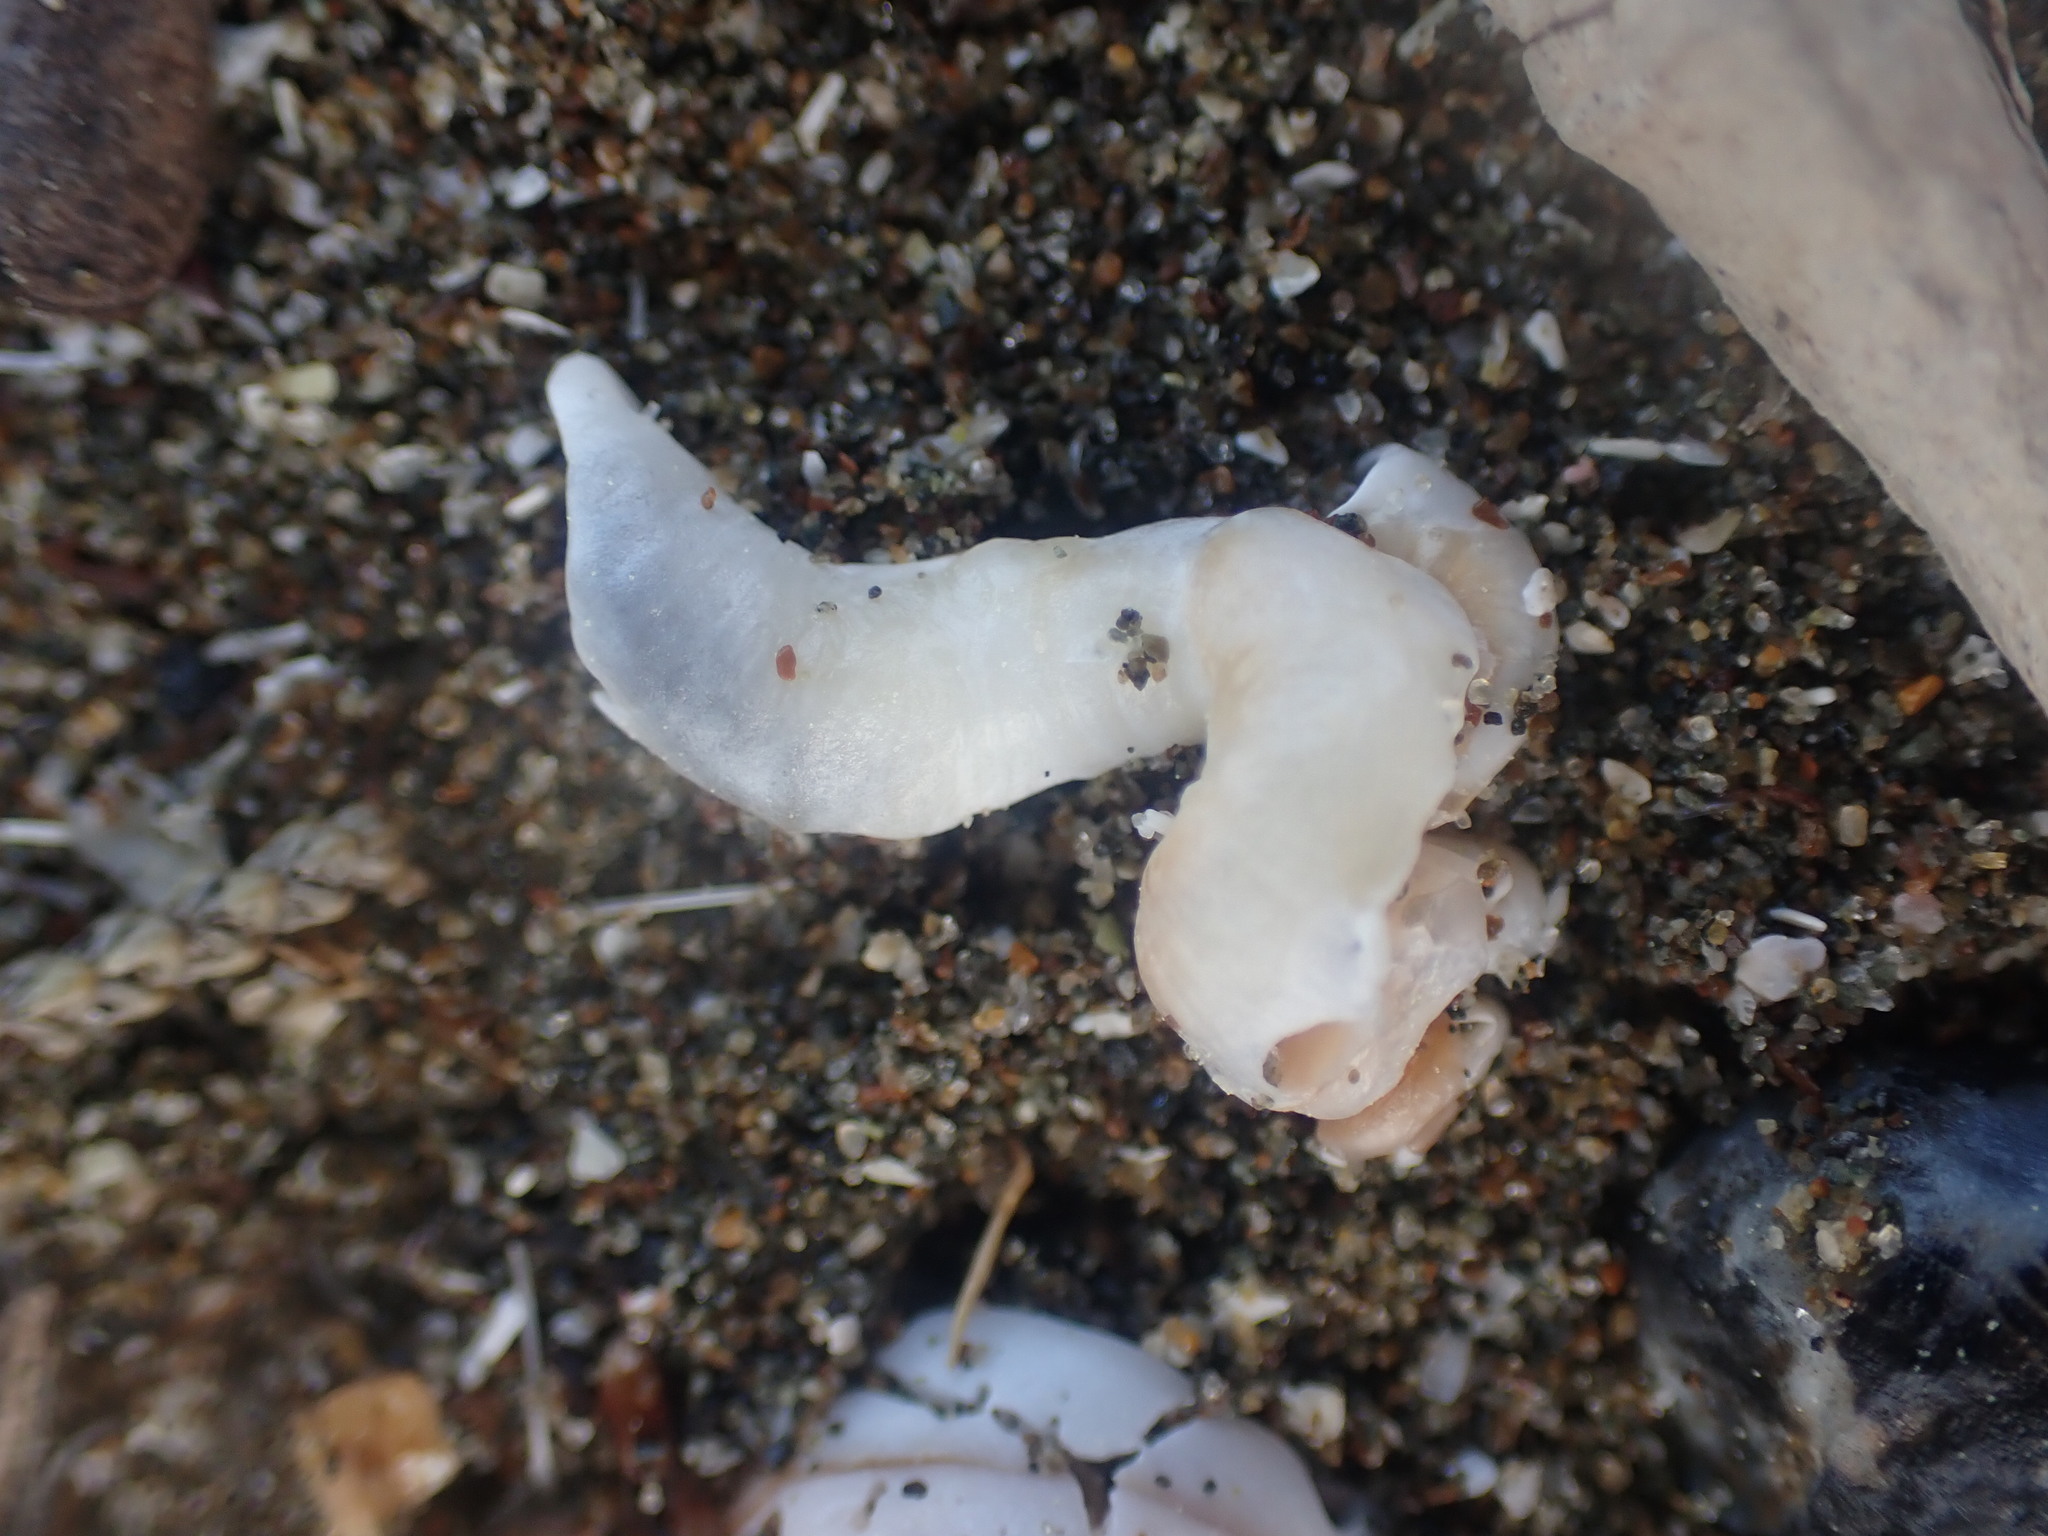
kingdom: Animalia
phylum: Mollusca
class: Gastropoda
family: Siliquariidae
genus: Stephopoma
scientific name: Stephopoma roseum
